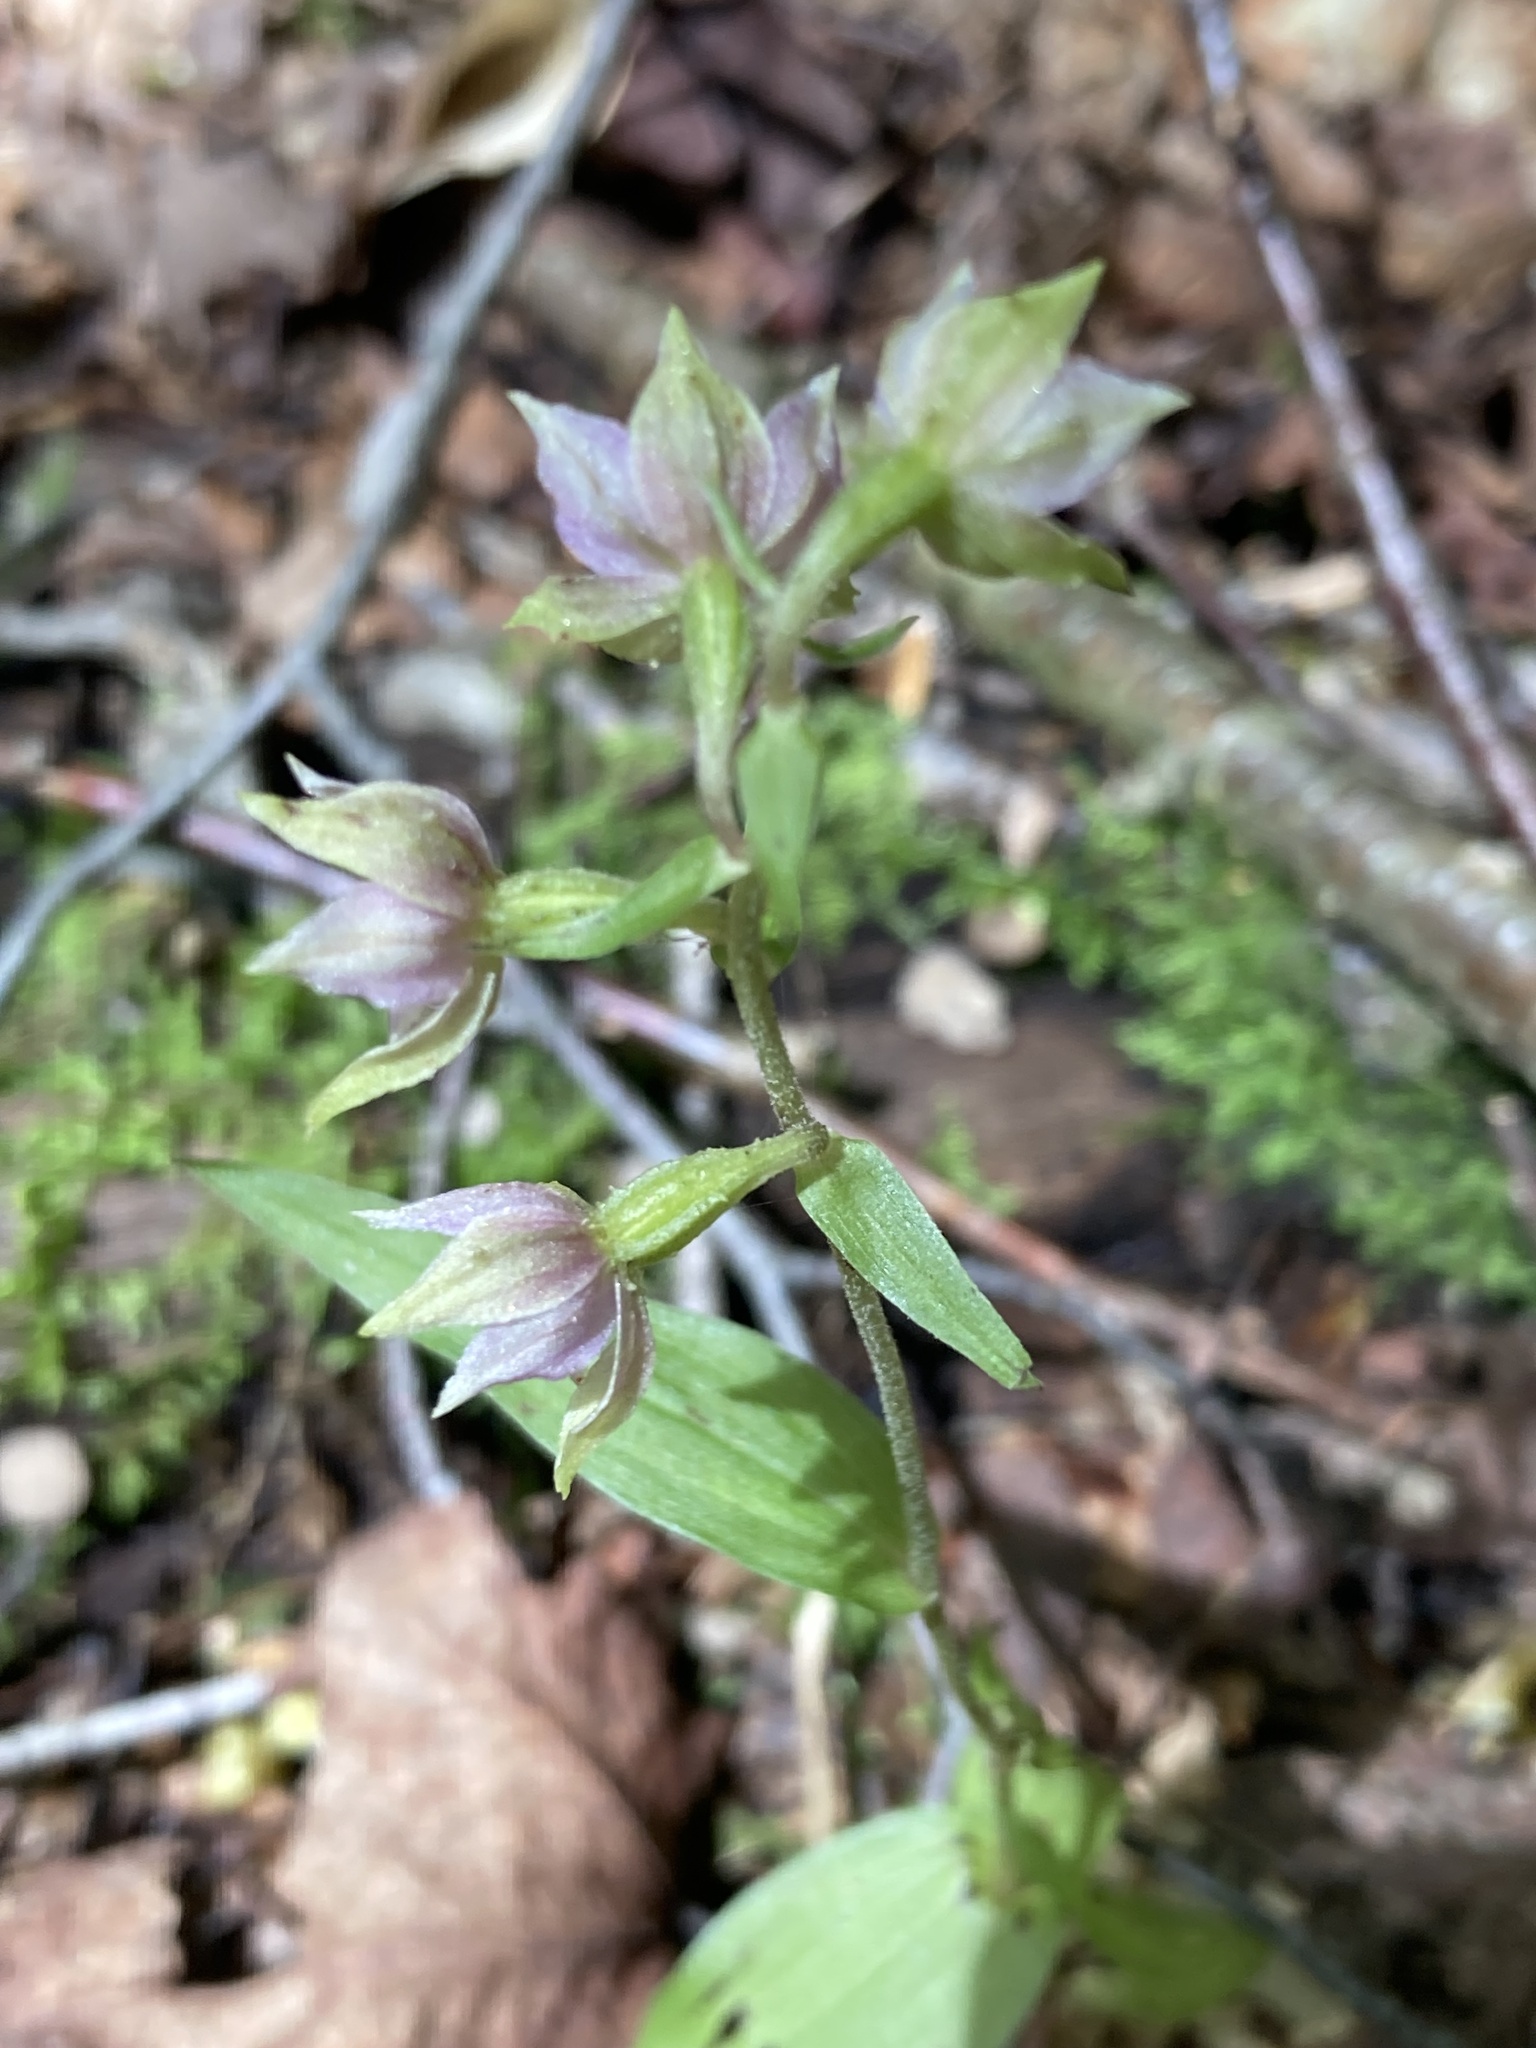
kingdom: Plantae
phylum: Tracheophyta
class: Liliopsida
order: Asparagales
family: Orchidaceae
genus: Epipactis
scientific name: Epipactis helleborine
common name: Broad-leaved helleborine
